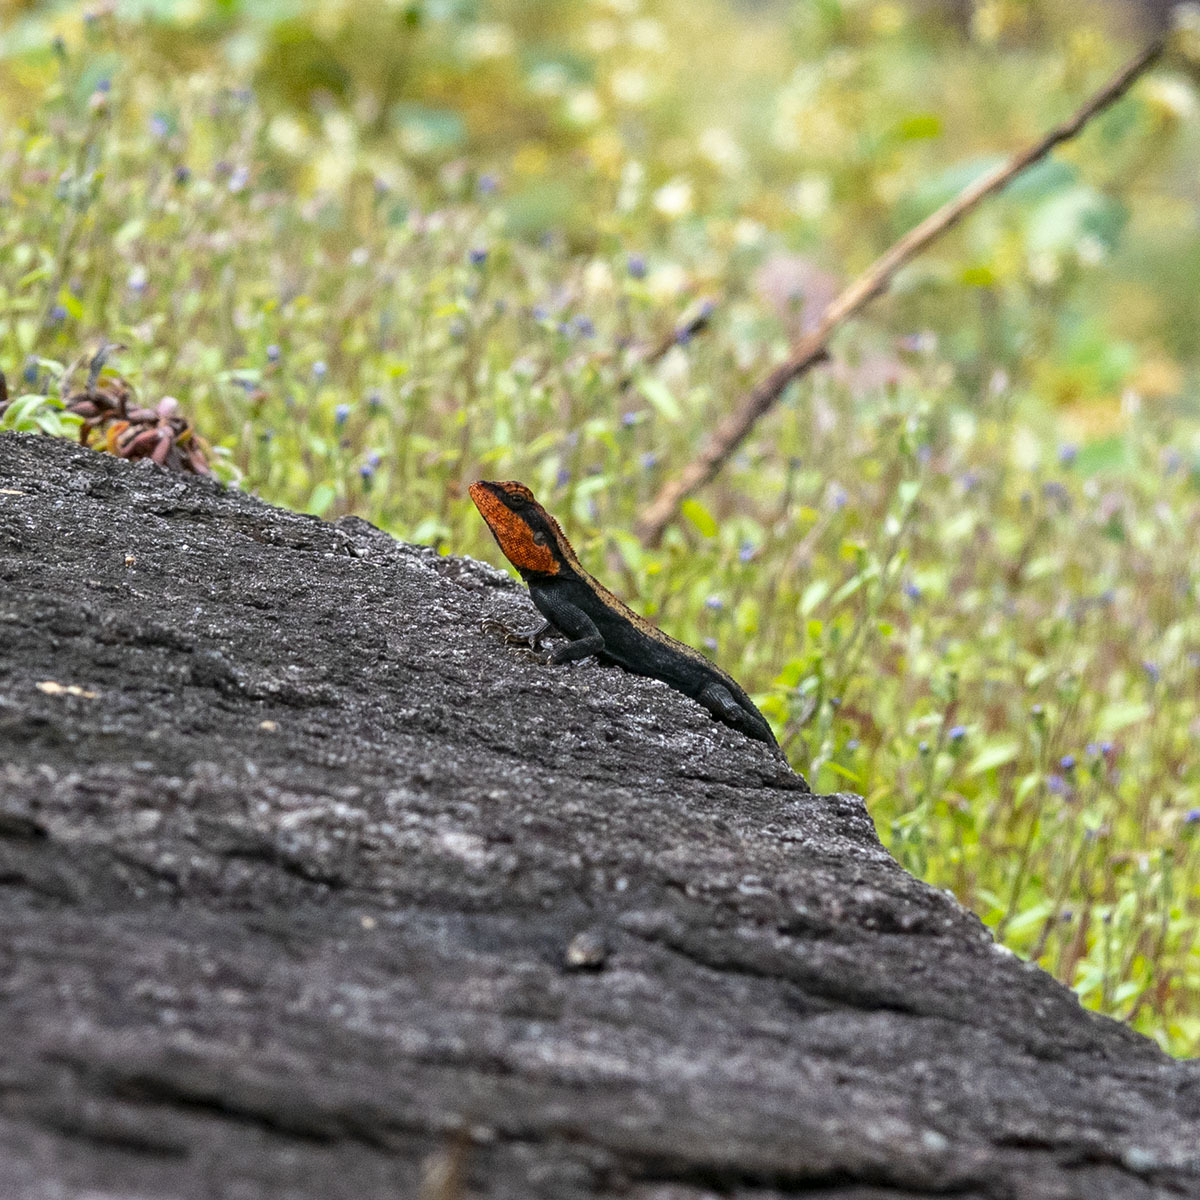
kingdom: Animalia
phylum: Chordata
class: Squamata
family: Agamidae
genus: Psammophilus
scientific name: Psammophilus dorsalis
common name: South indian rock agama
